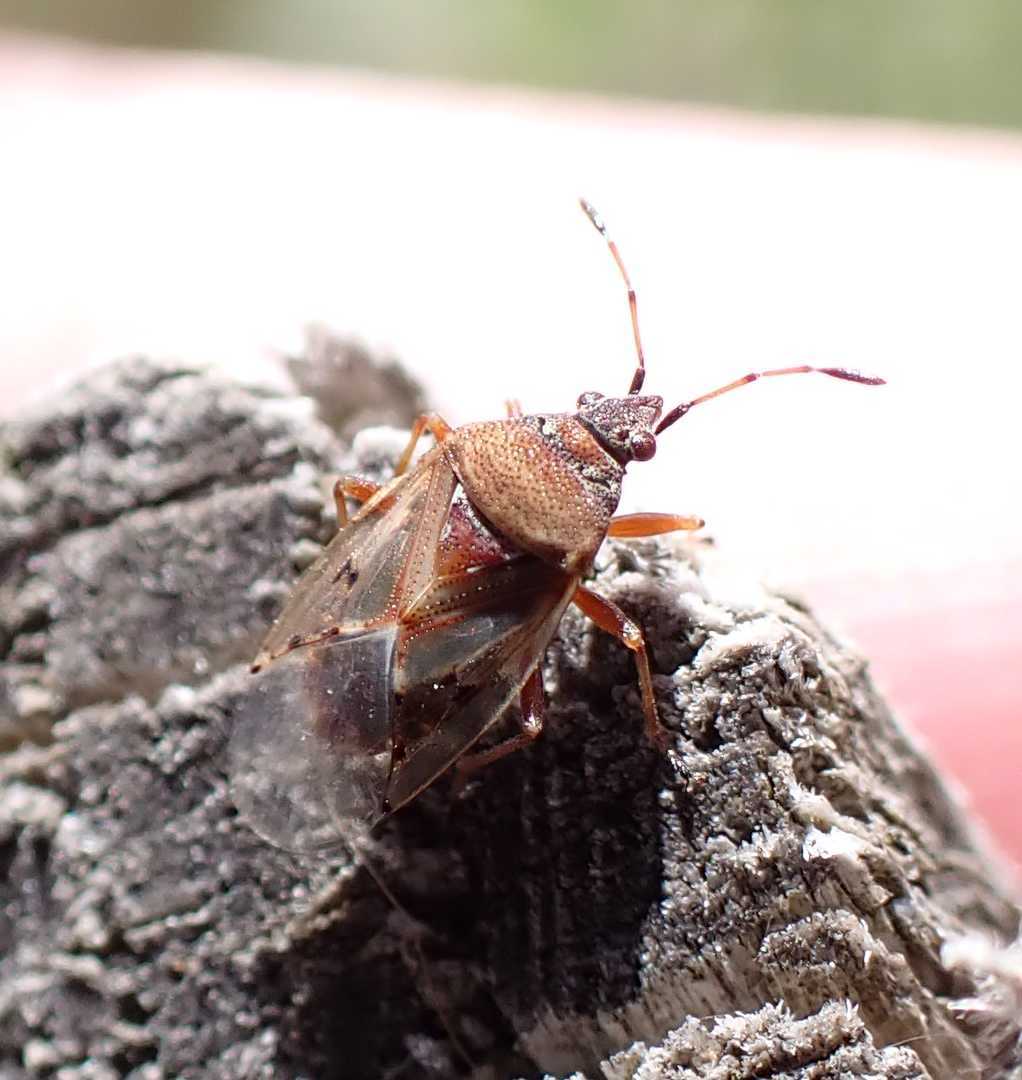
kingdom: Animalia
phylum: Arthropoda
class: Insecta
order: Hemiptera
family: Lygaeidae
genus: Kleidocerys
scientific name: Kleidocerys resedae
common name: Birch catkin bug
